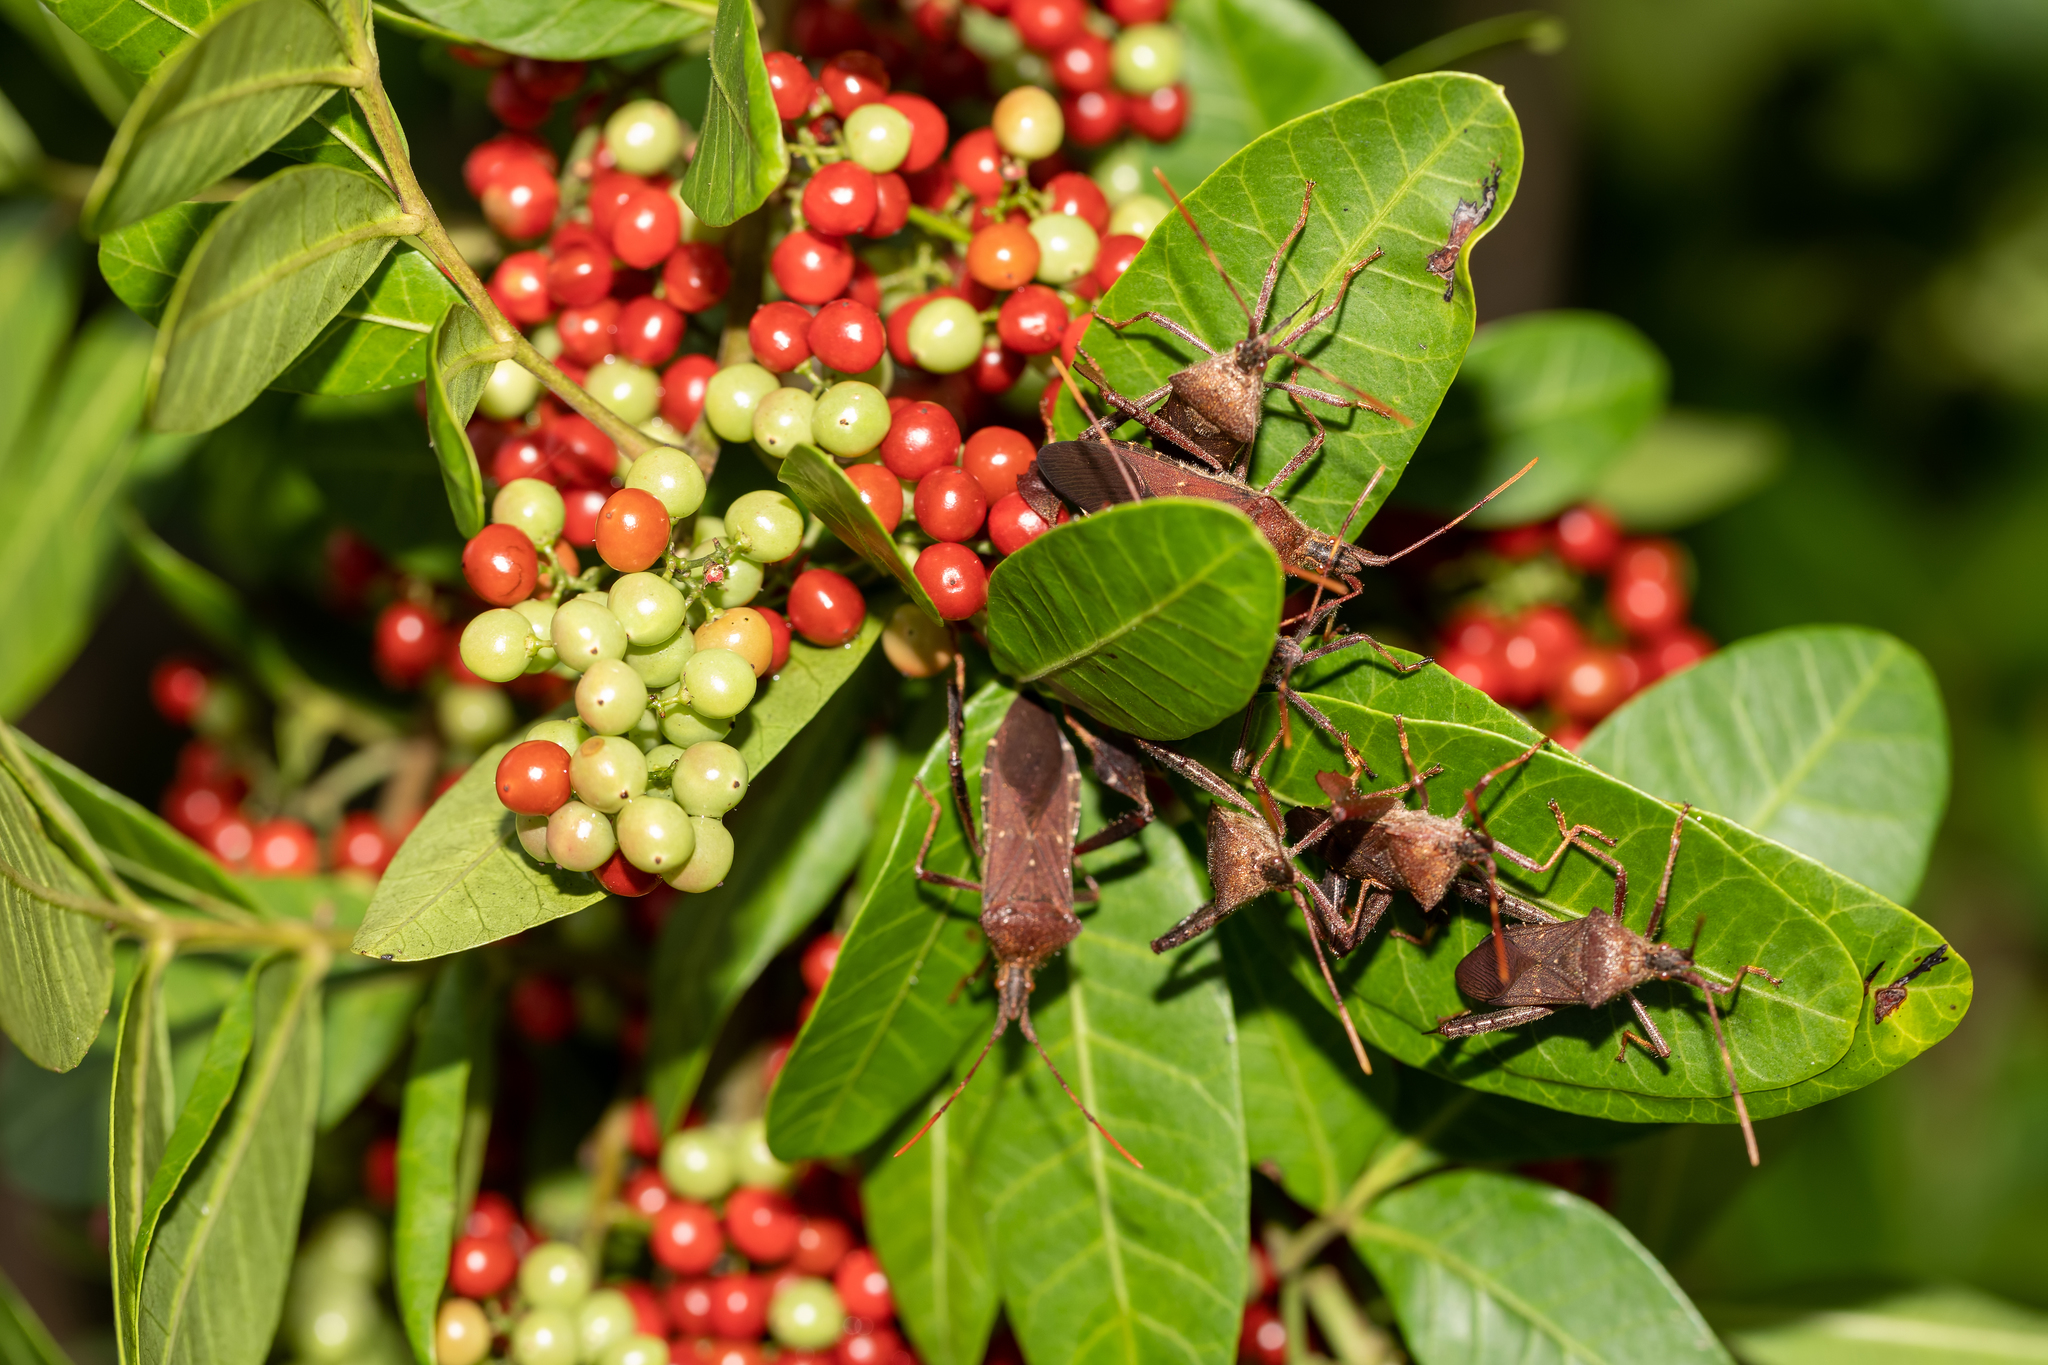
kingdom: Animalia
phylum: Arthropoda
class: Insecta
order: Hemiptera
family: Coreidae
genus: Leptoglossus
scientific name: Leptoglossus oppositus
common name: Northern leaf-footed bug
